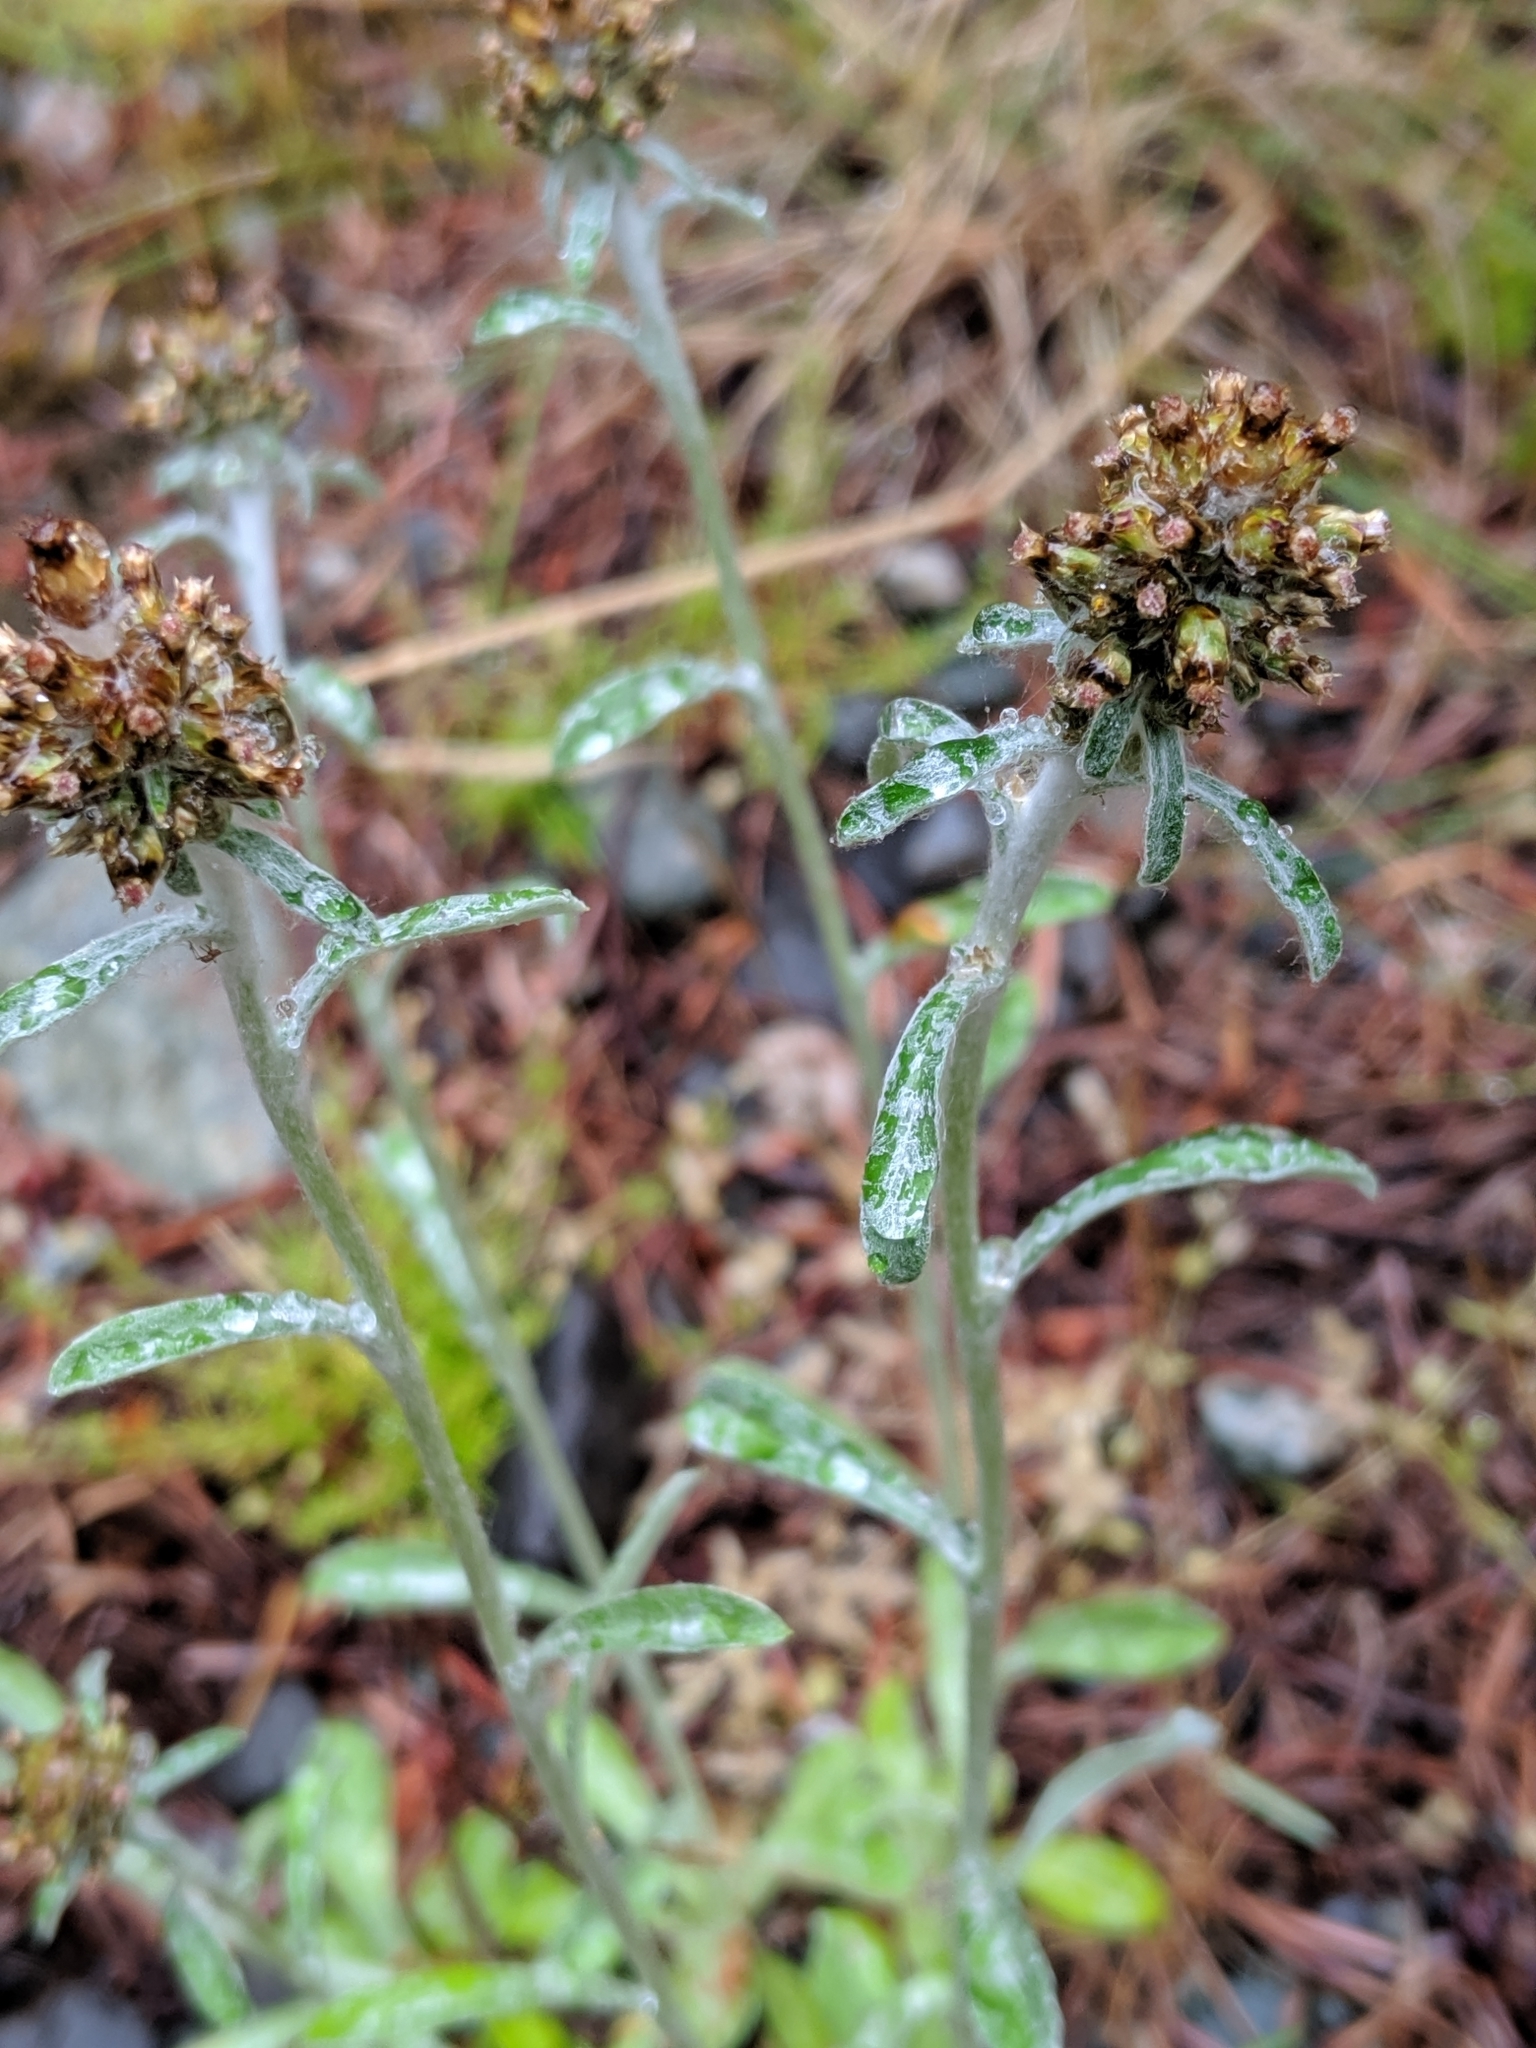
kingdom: Plantae
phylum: Tracheophyta
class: Magnoliopsida
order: Asterales
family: Asteraceae
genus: Gamochaeta
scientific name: Gamochaeta ustulata
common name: Pacific cudweed
